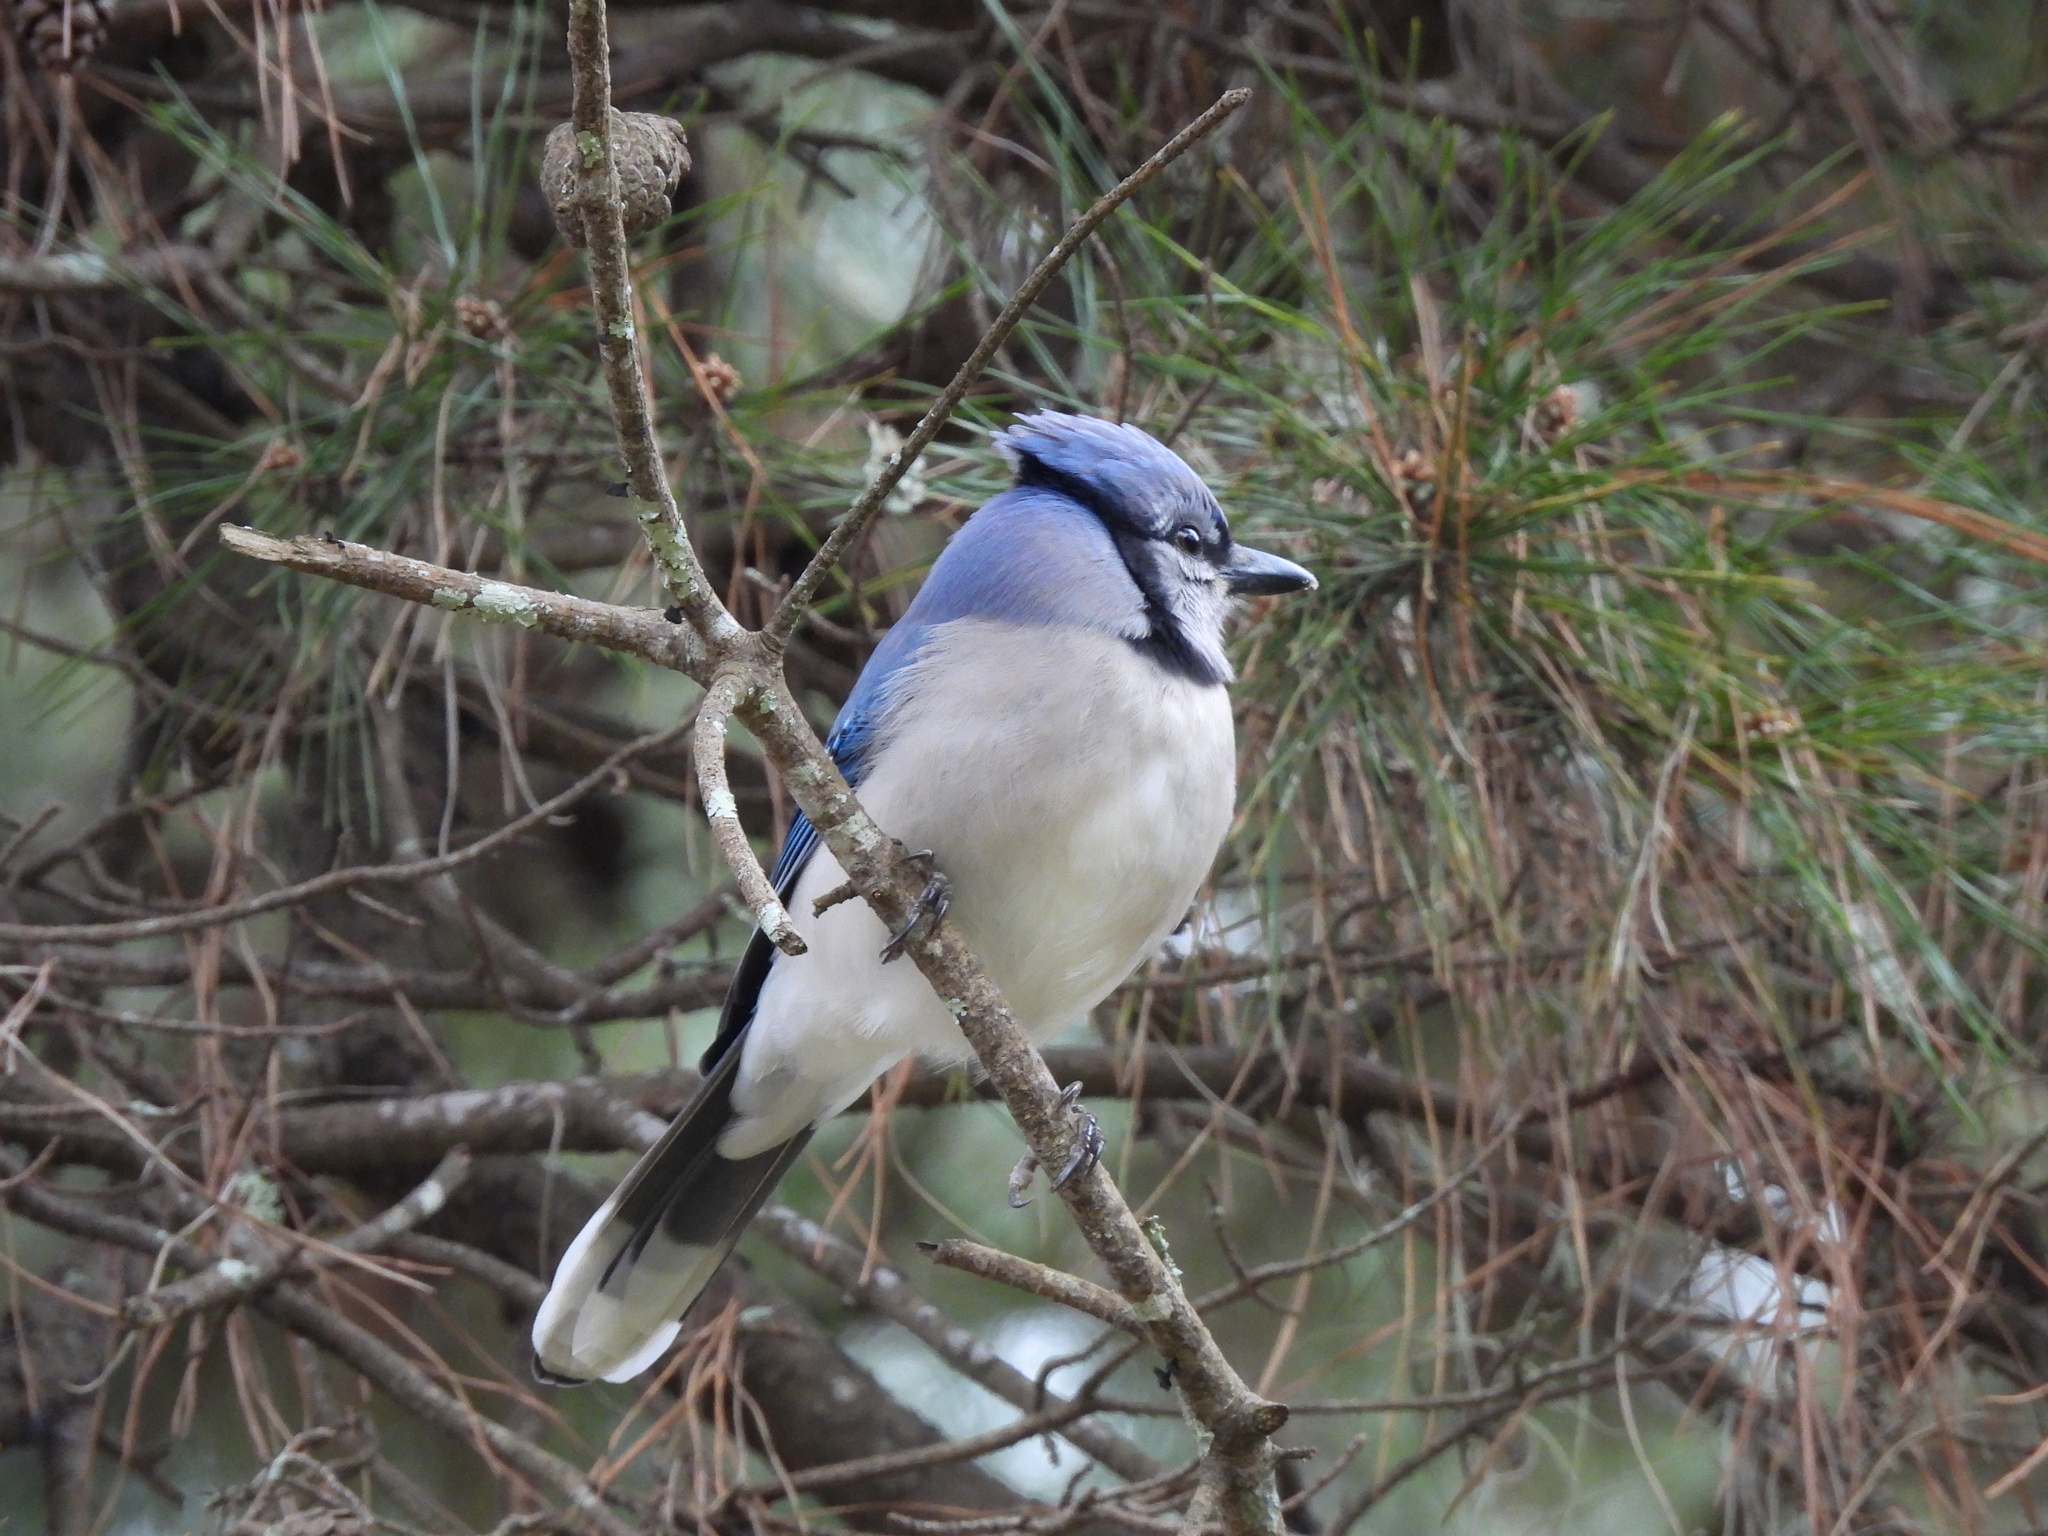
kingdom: Animalia
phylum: Chordata
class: Aves
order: Passeriformes
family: Corvidae
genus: Cyanocitta
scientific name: Cyanocitta cristata
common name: Blue jay
